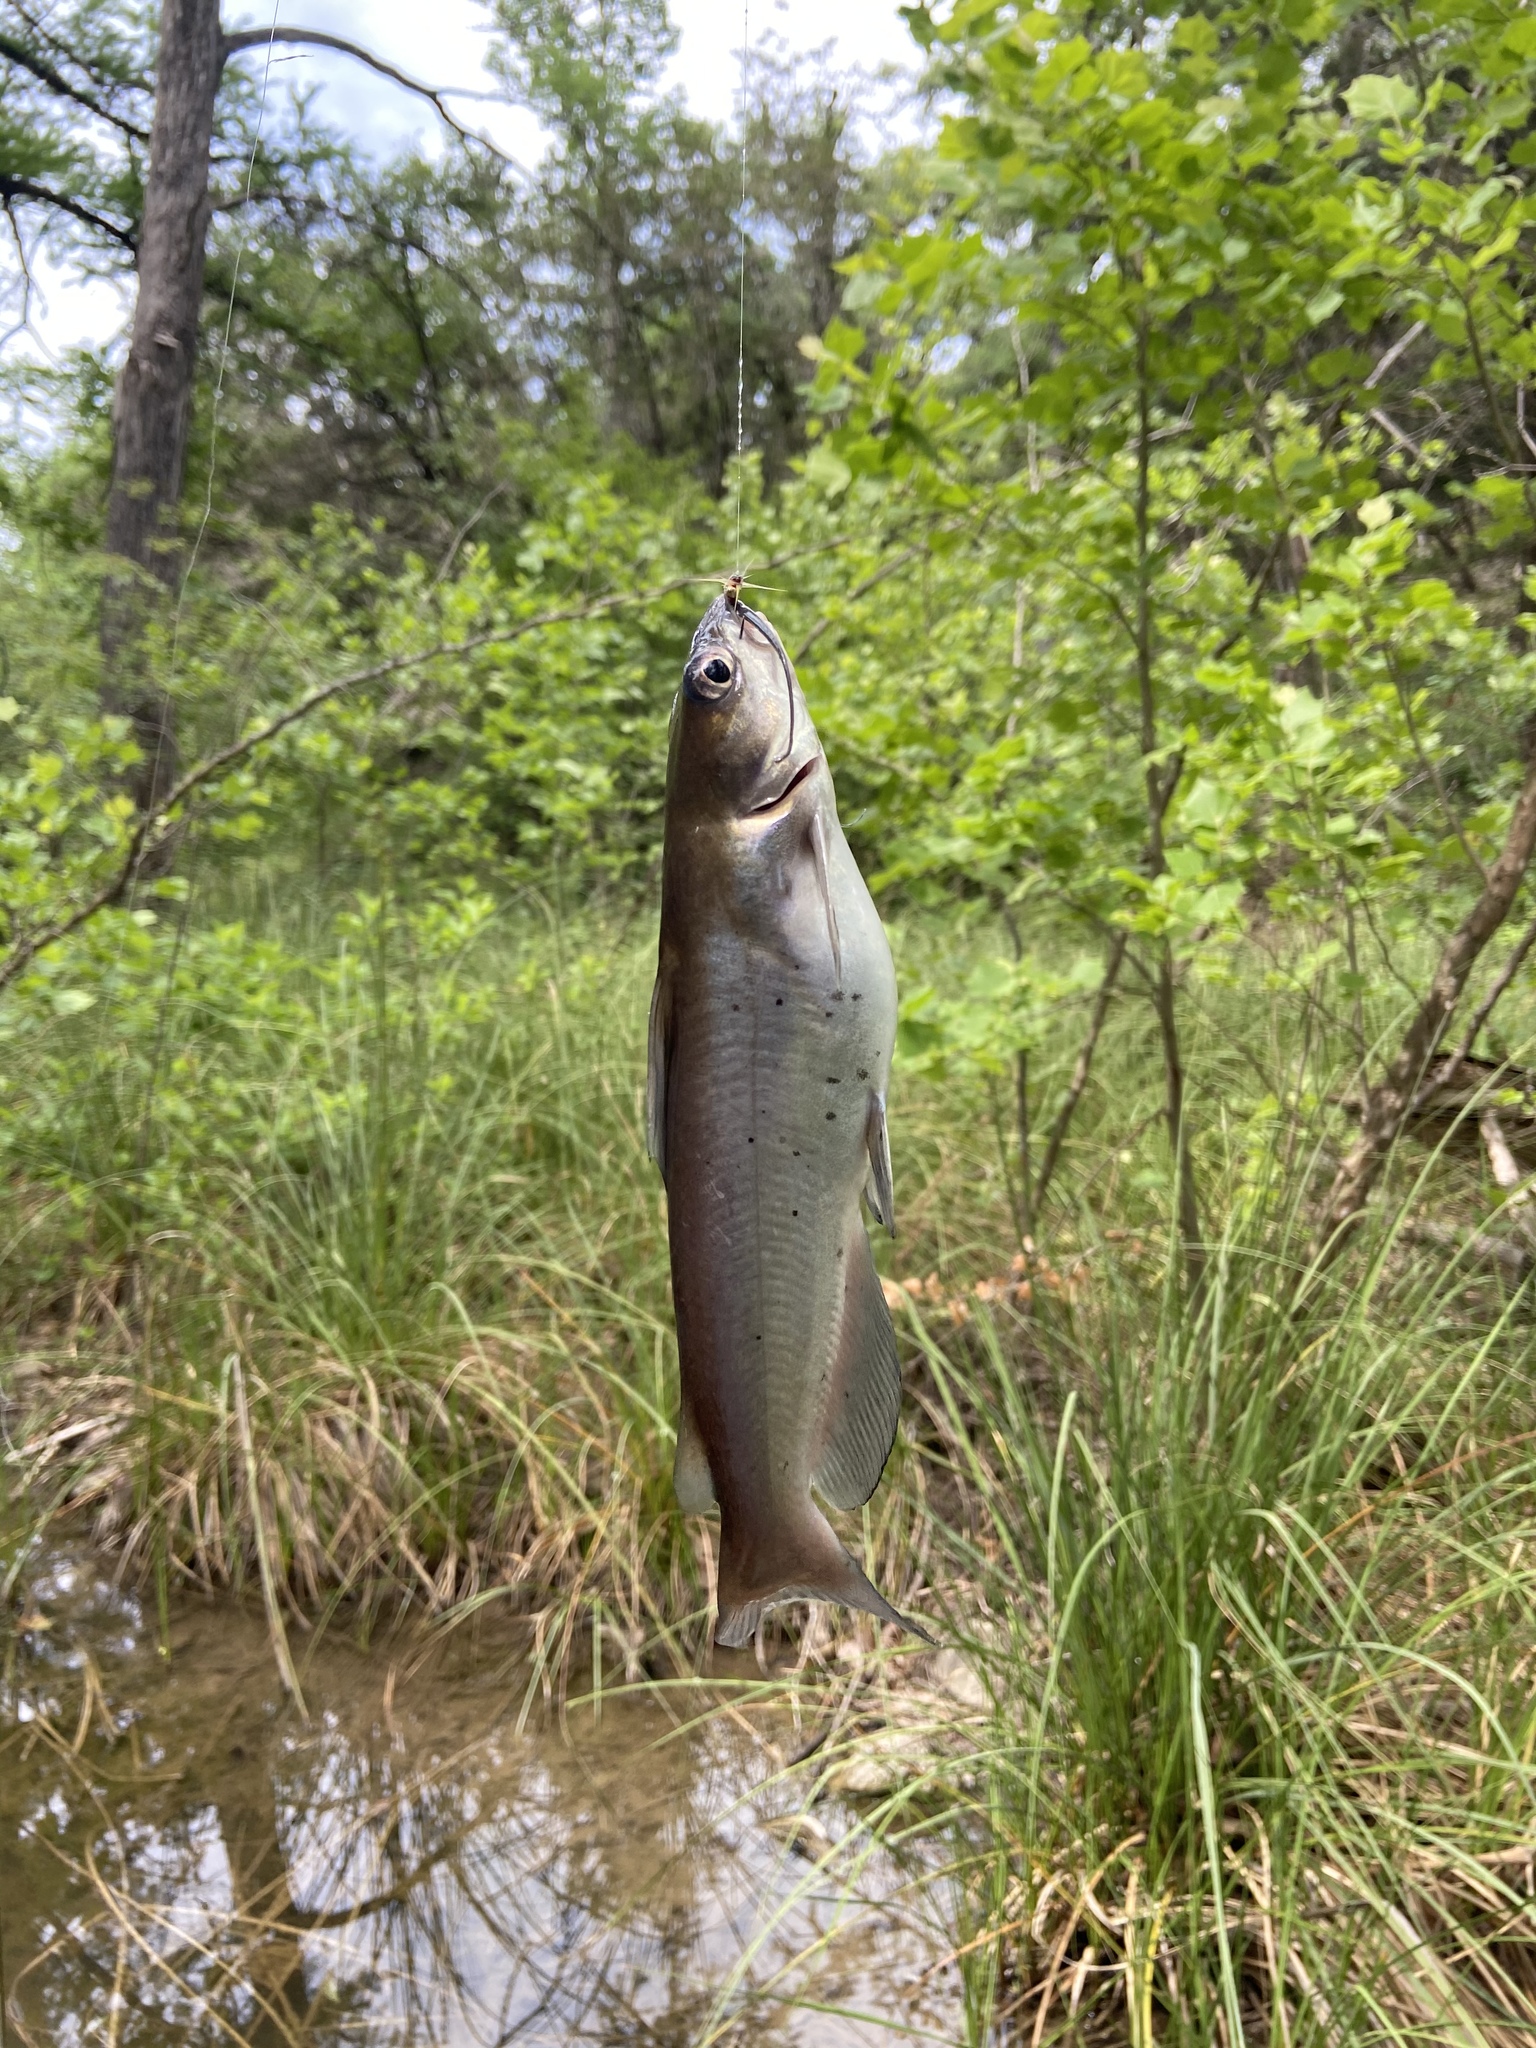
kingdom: Animalia
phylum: Chordata
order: Siluriformes
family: Ictaluridae
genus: Ictalurus
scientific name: Ictalurus punctatus
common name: Channel catfish
